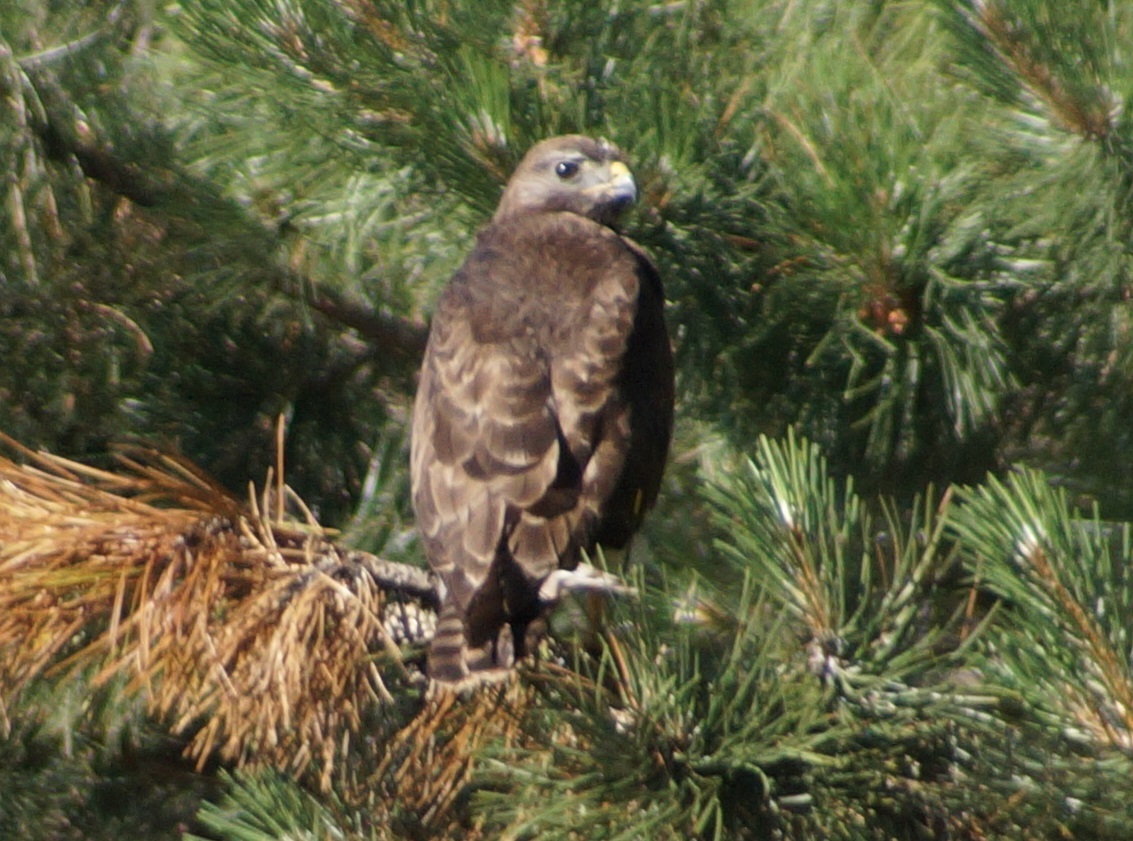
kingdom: Animalia
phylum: Chordata
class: Aves
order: Accipitriformes
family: Accipitridae
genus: Buteo
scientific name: Buteo buteo
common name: Common buzzard
